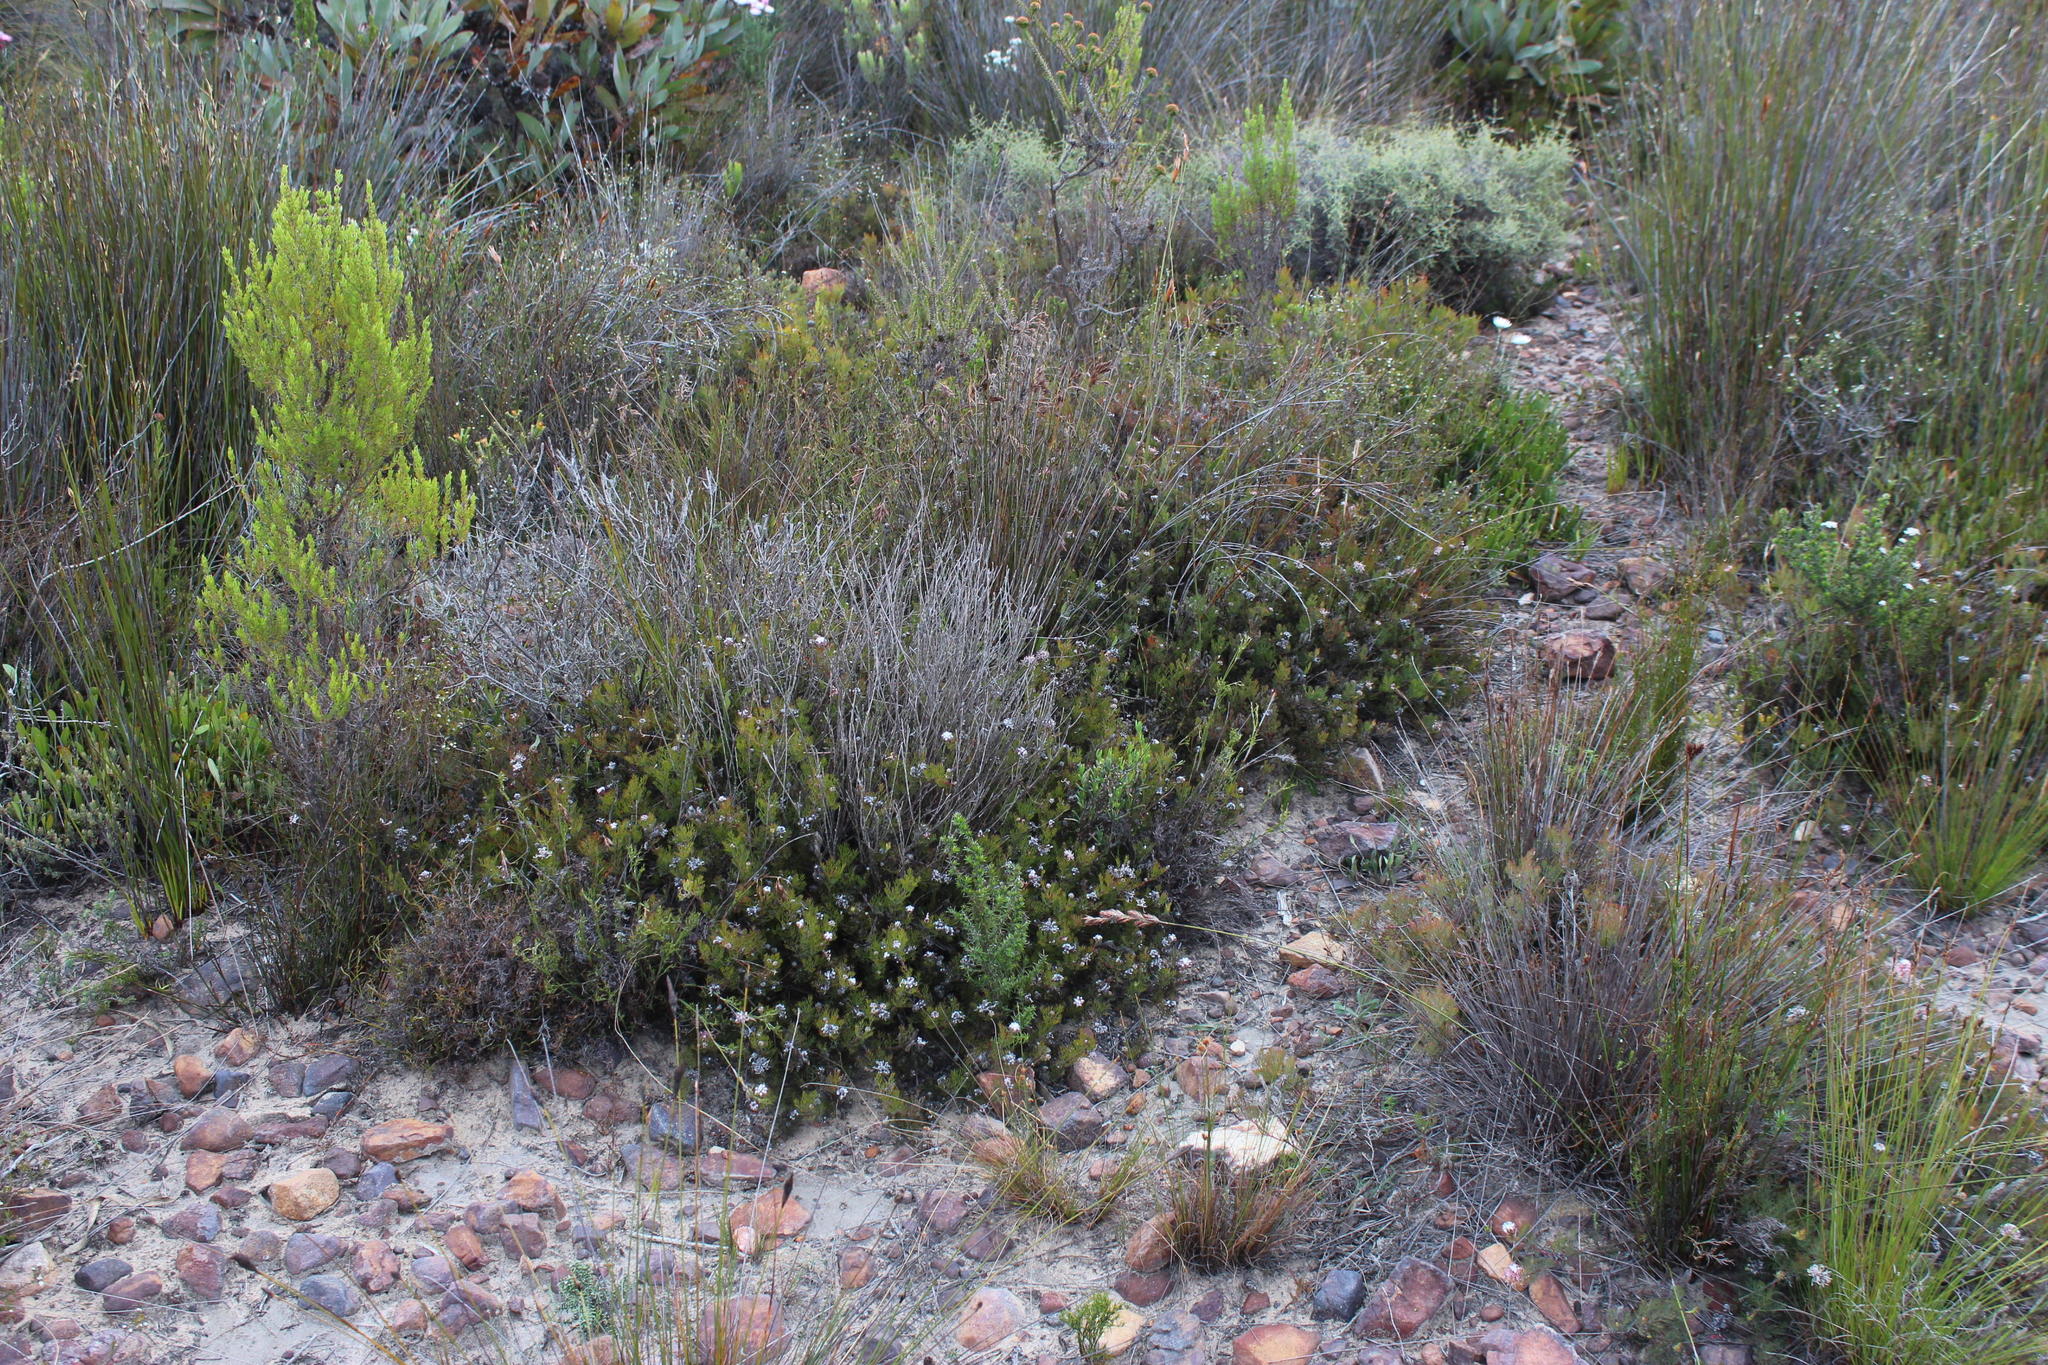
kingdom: Plantae
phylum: Tracheophyta
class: Magnoliopsida
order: Proteales
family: Proteaceae
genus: Serruria
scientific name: Serruria gremialis
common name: Riviersonderend spiderhead
